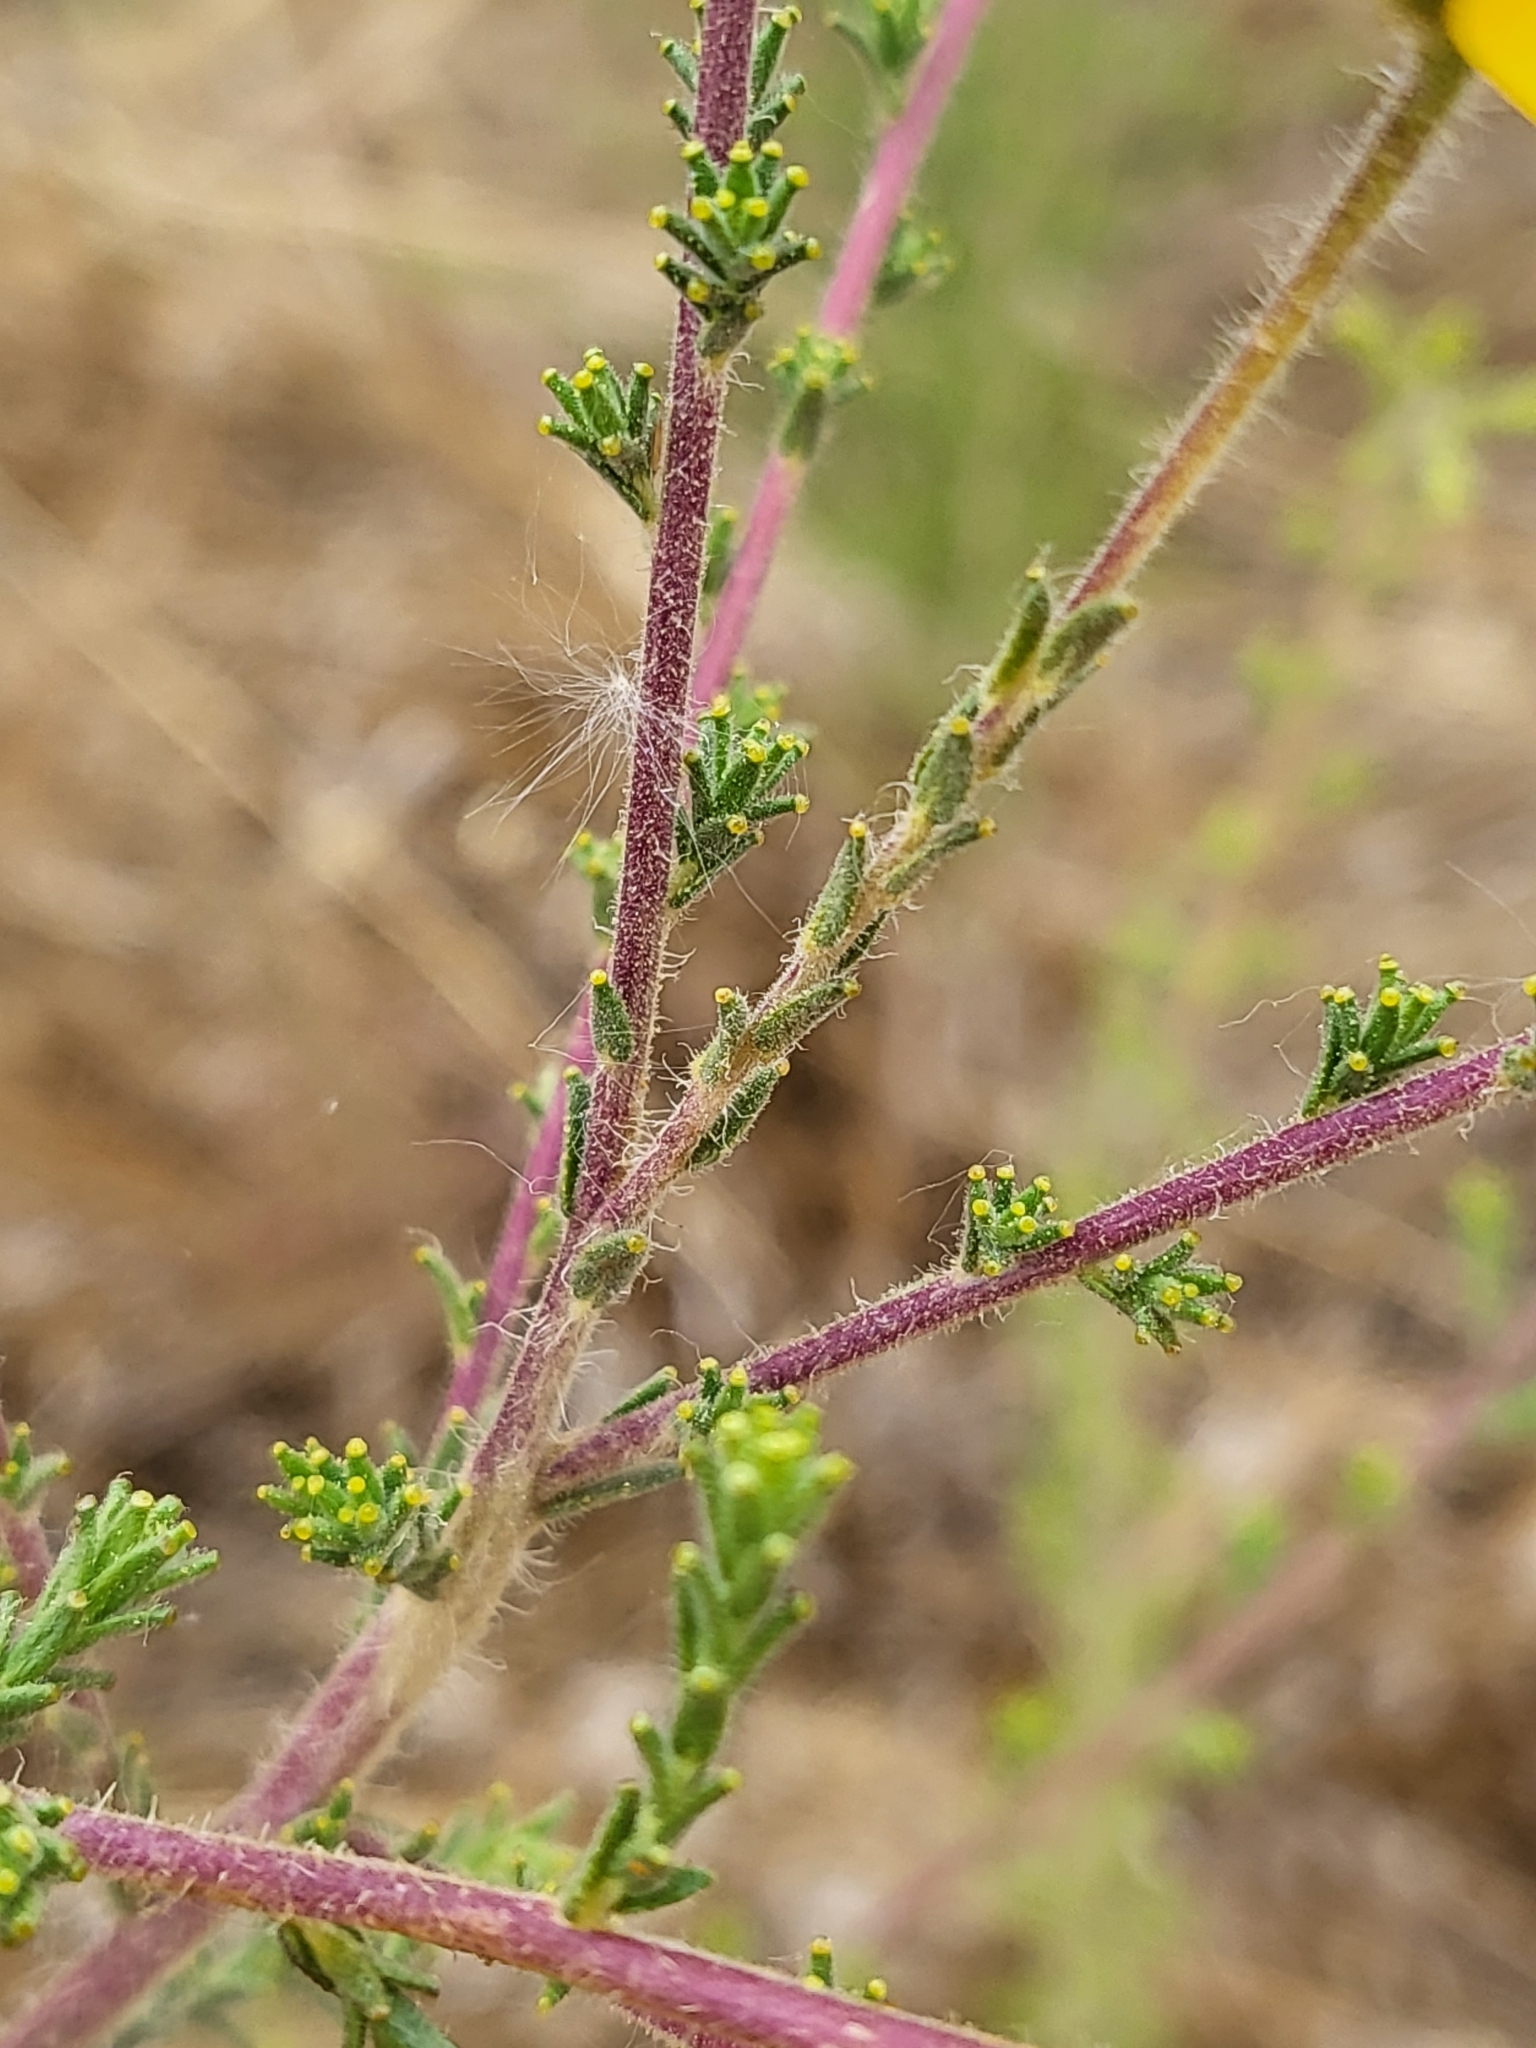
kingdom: Plantae
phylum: Tracheophyta
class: Magnoliopsida
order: Asterales
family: Asteraceae
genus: Holocarpha
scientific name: Holocarpha heermannii
